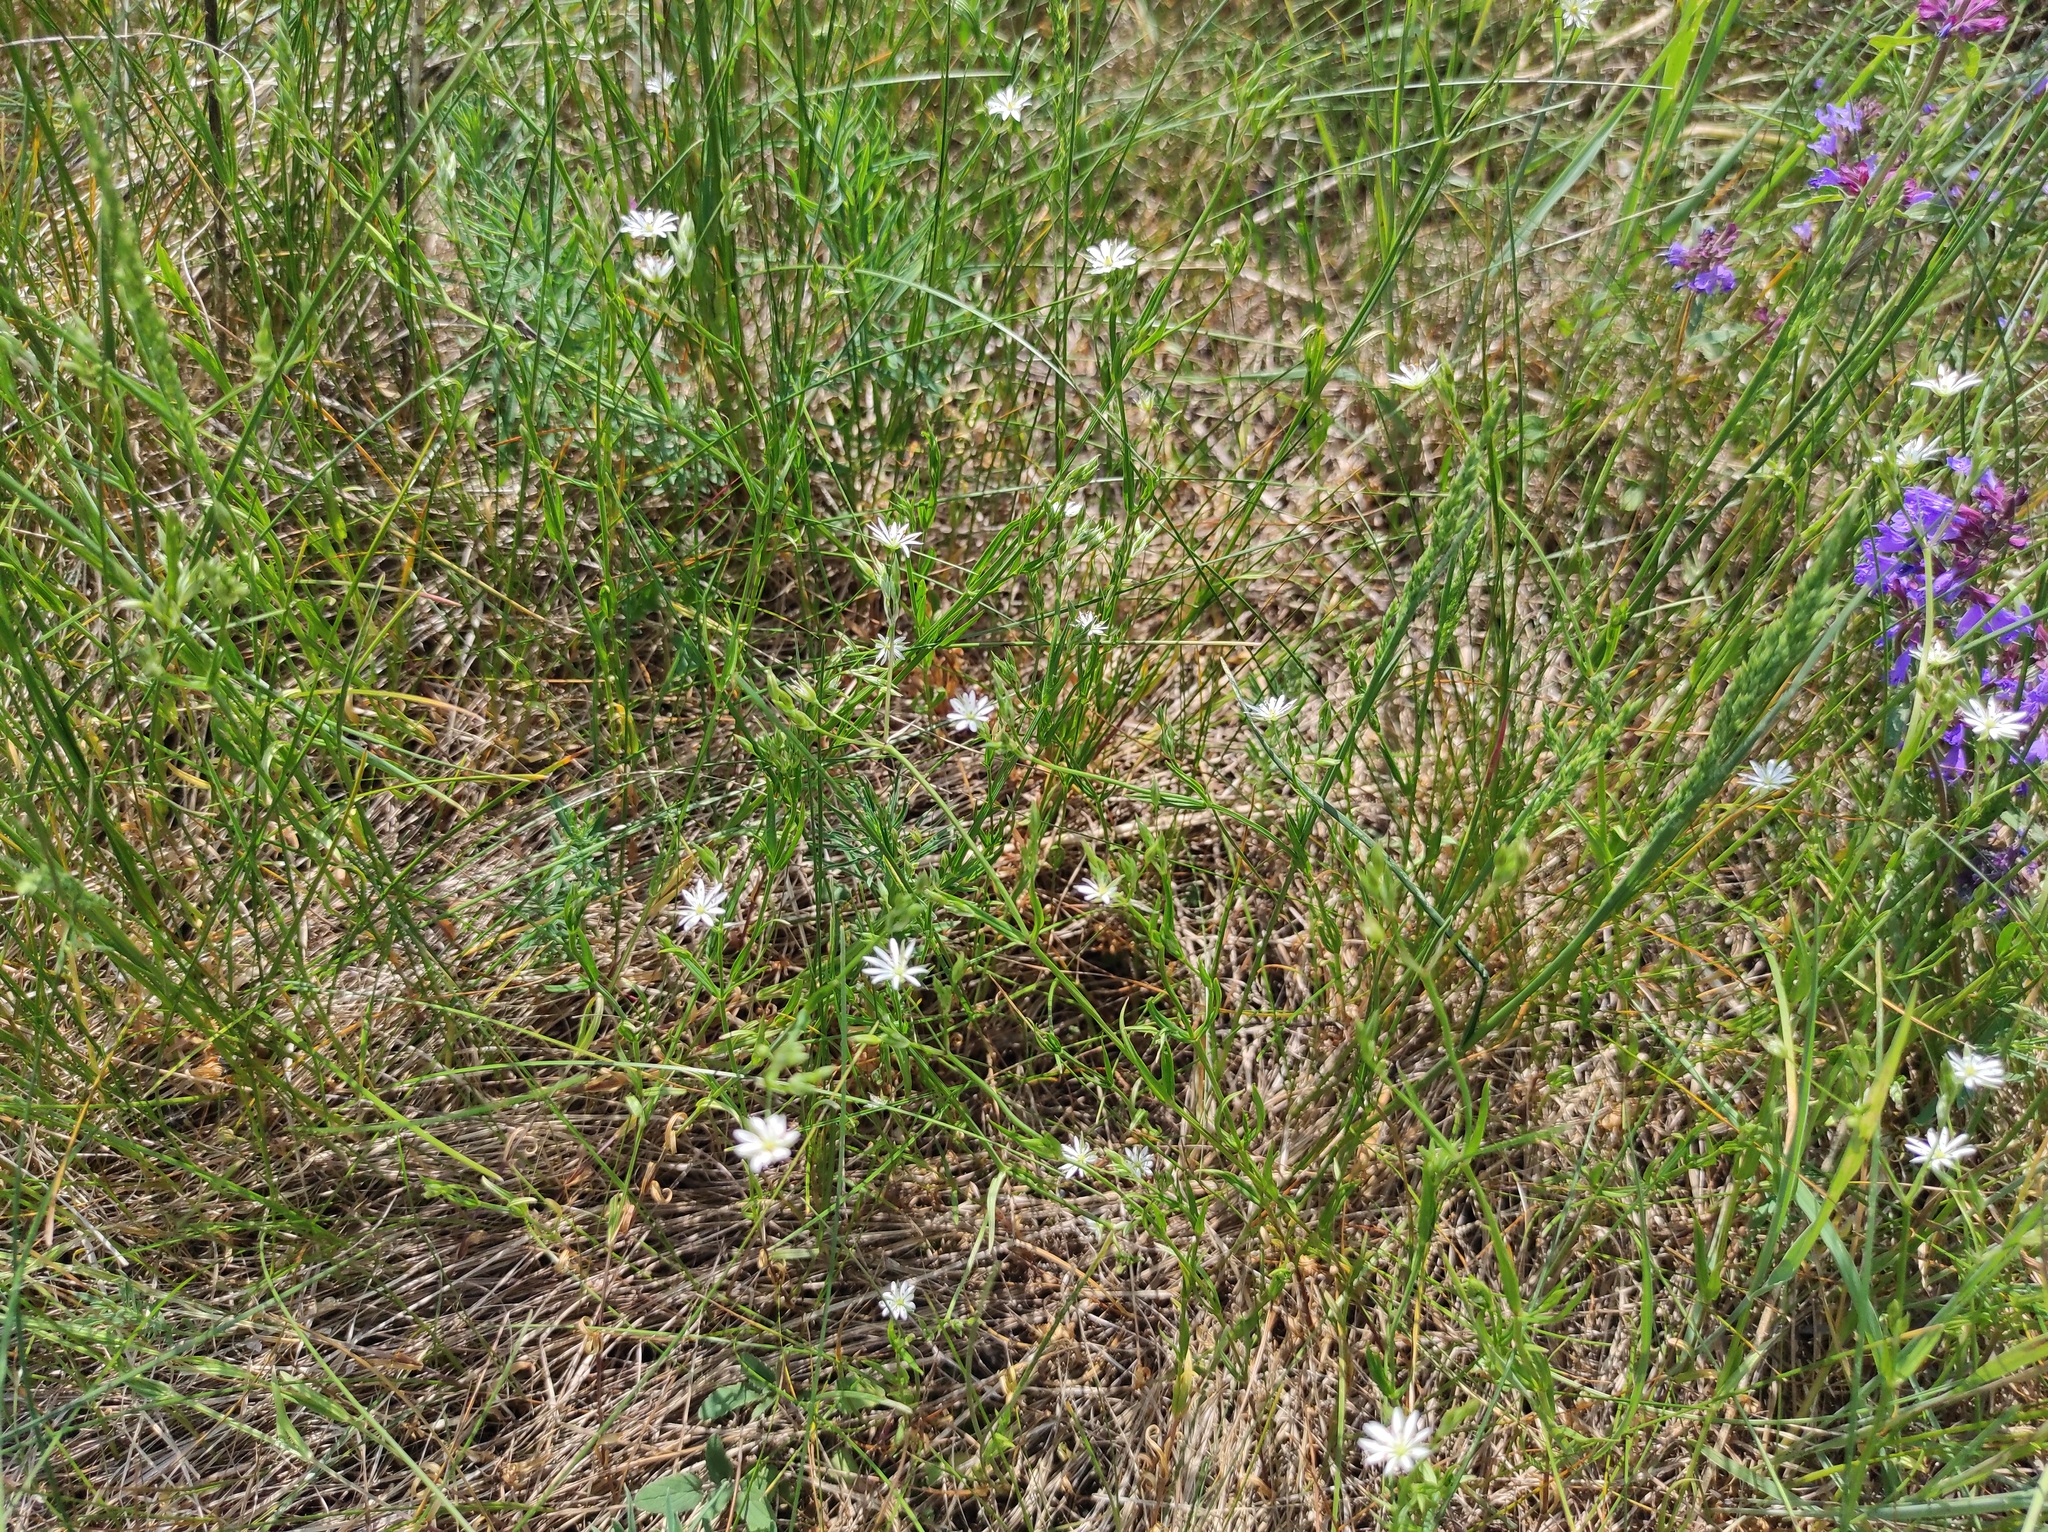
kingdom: Plantae
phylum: Tracheophyta
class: Magnoliopsida
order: Lamiales
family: Lamiaceae
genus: Dracocephalum
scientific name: Dracocephalum nutans
